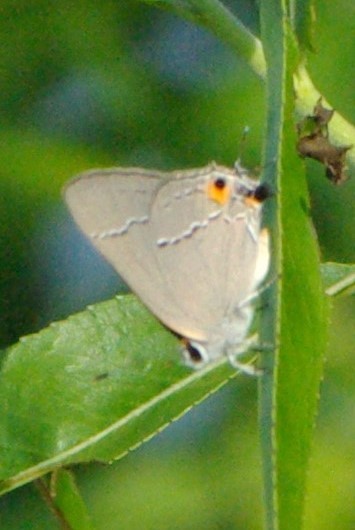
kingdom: Animalia
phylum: Arthropoda
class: Insecta
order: Lepidoptera
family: Lycaenidae
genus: Strymon
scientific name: Strymon melinus
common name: Gray hairstreak
